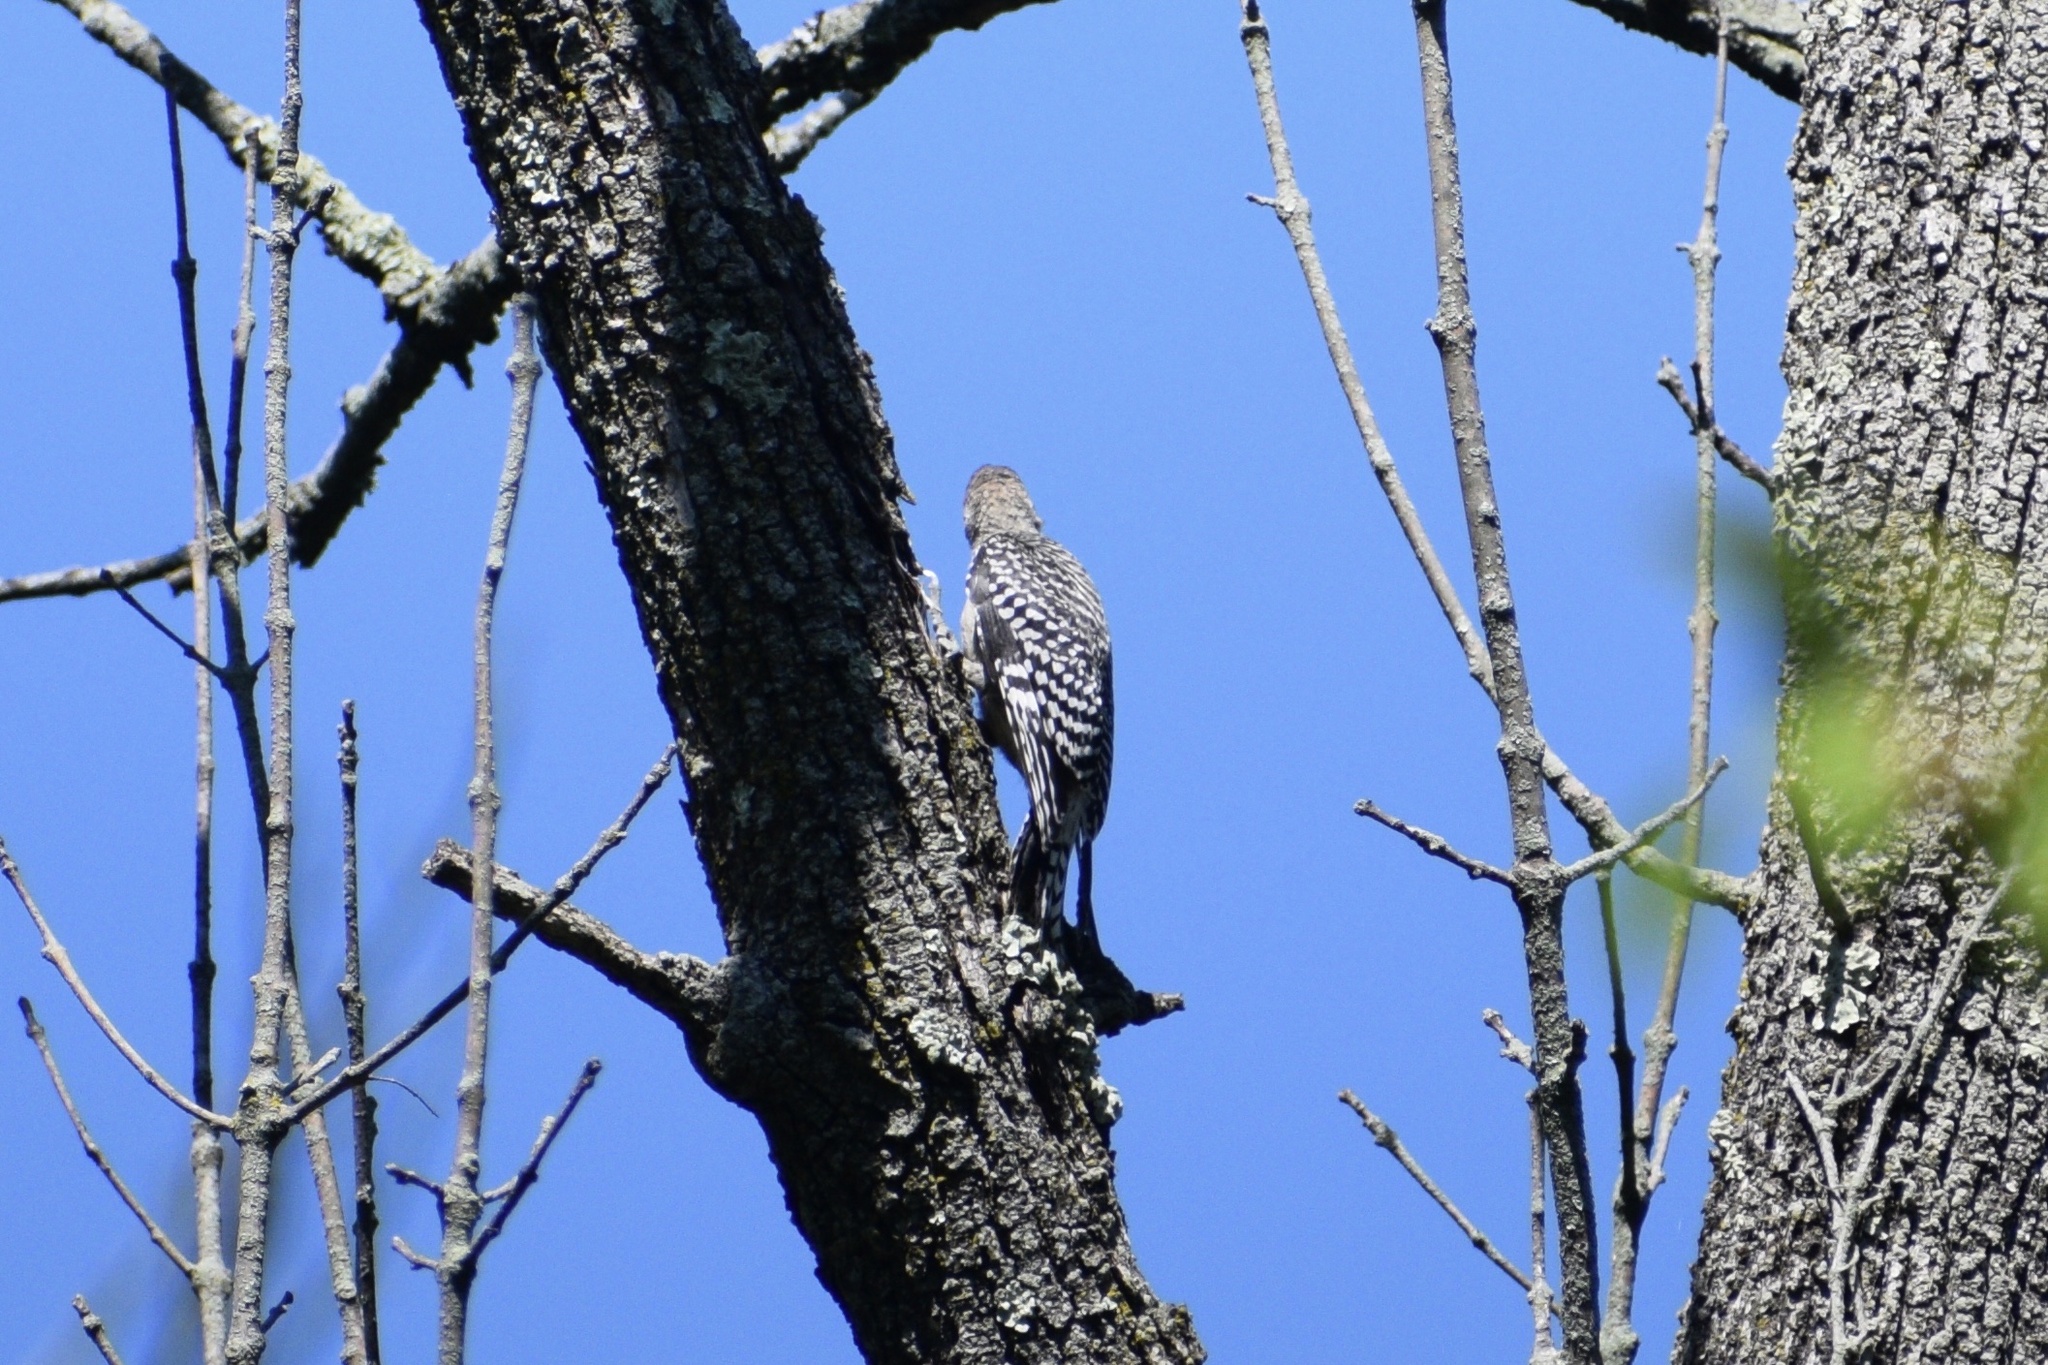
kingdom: Animalia
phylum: Chordata
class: Aves
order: Piciformes
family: Picidae
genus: Melanerpes
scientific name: Melanerpes carolinus
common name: Red-bellied woodpecker
